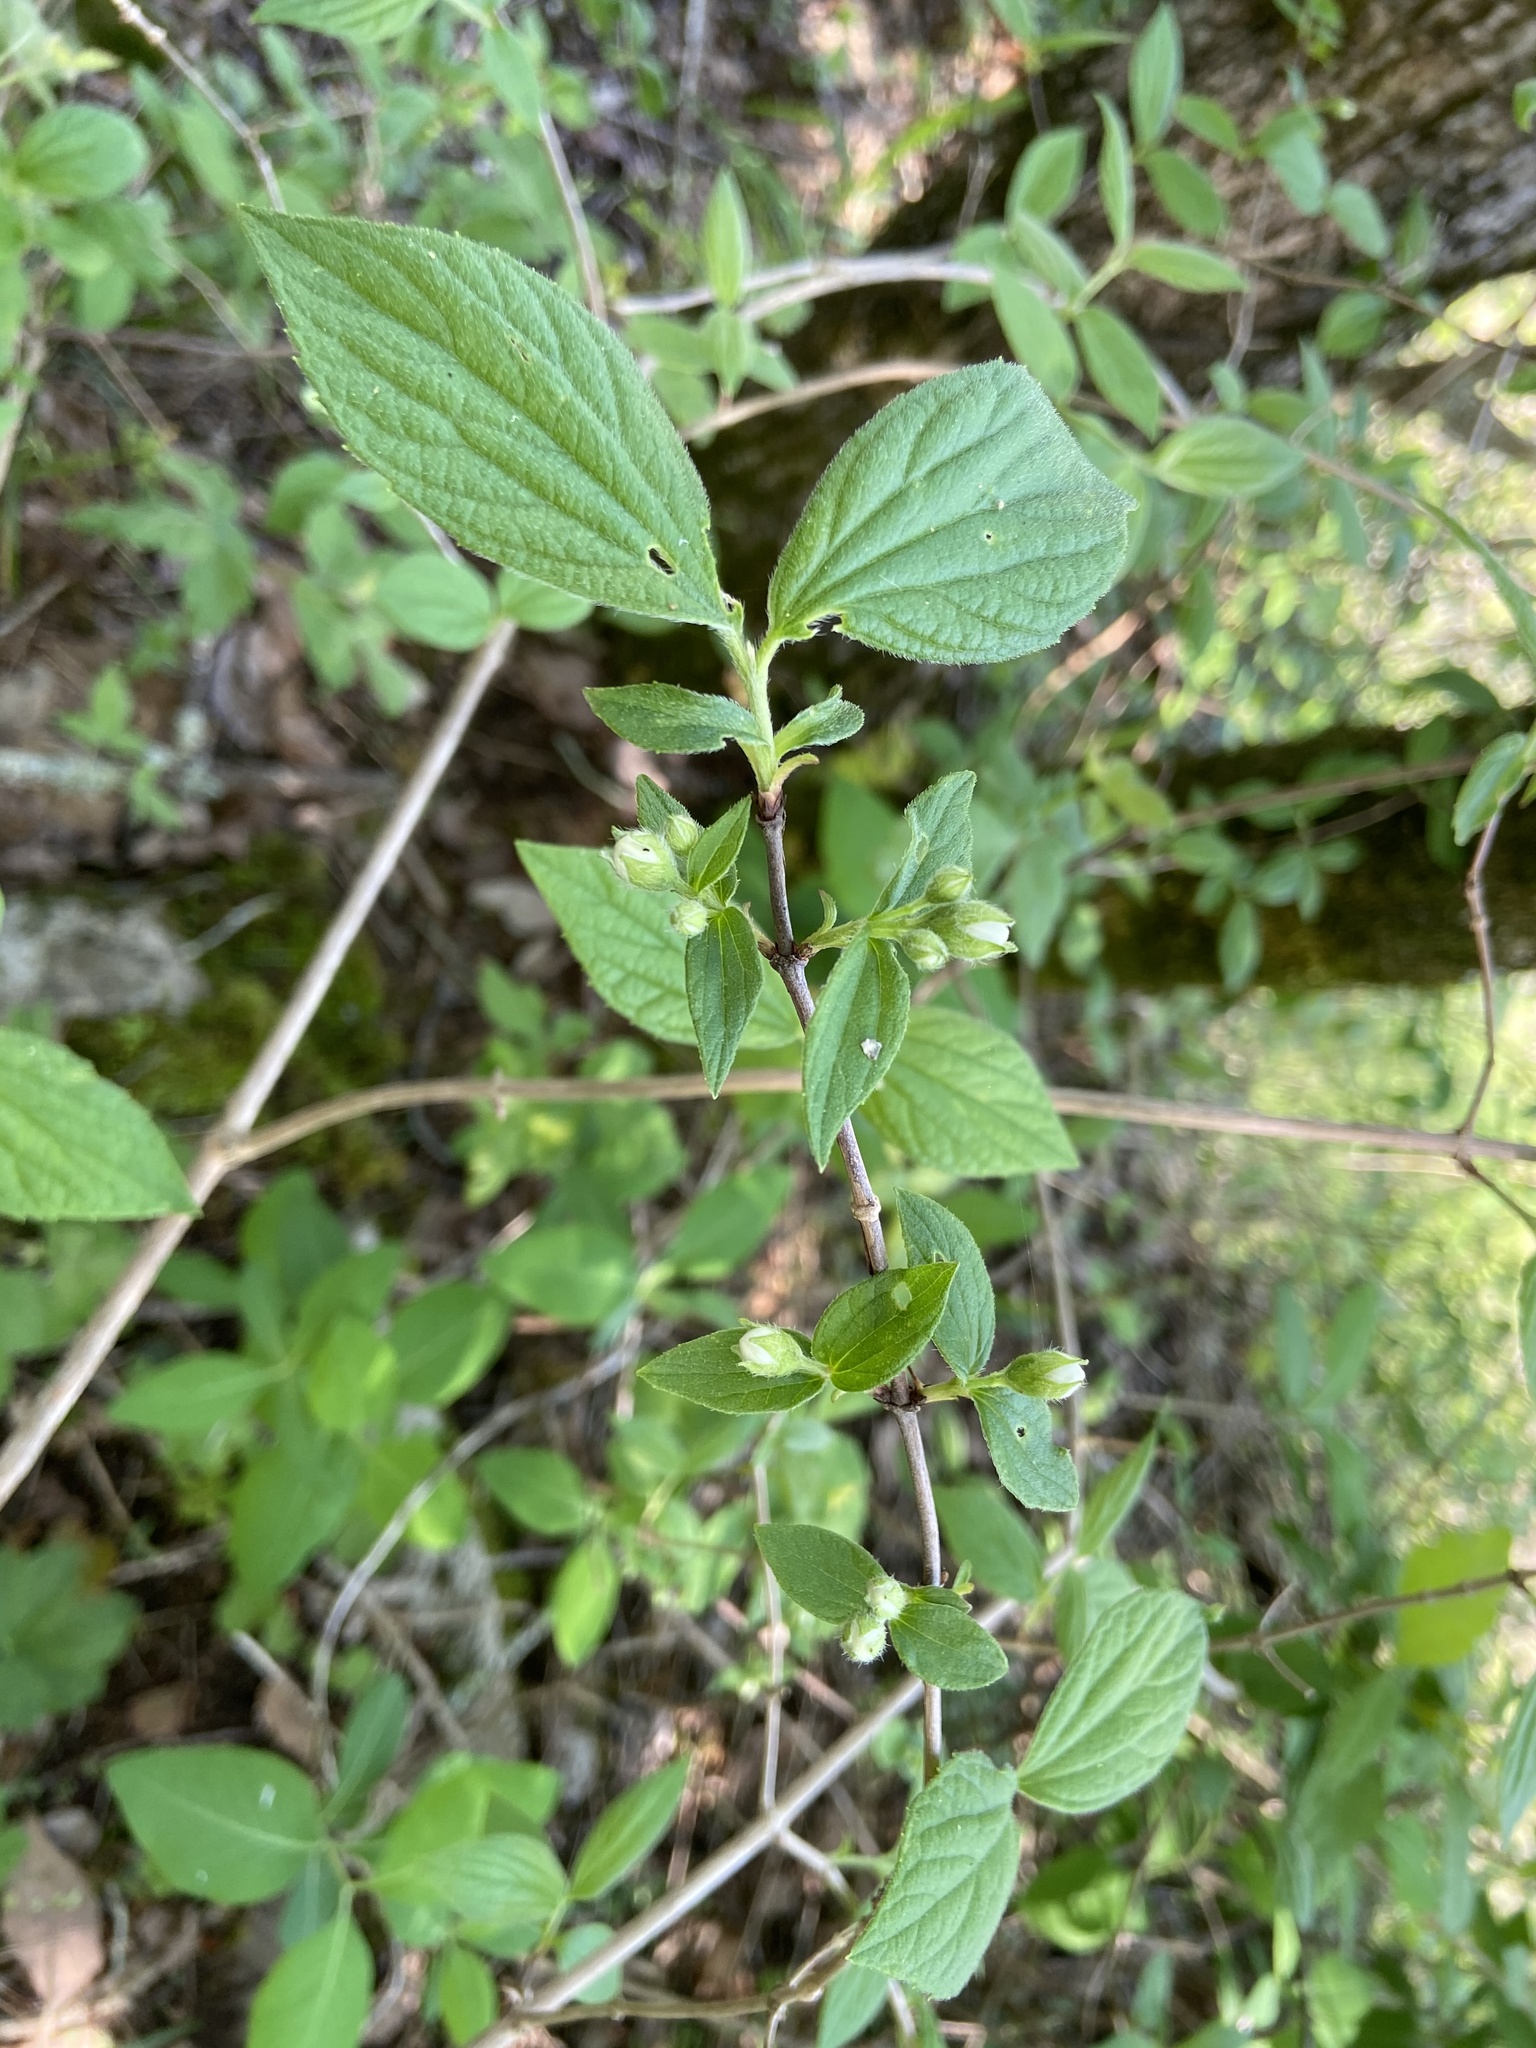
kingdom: Plantae
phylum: Tracheophyta
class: Magnoliopsida
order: Cornales
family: Hydrangeaceae
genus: Philadelphus
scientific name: Philadelphus hirsutus
